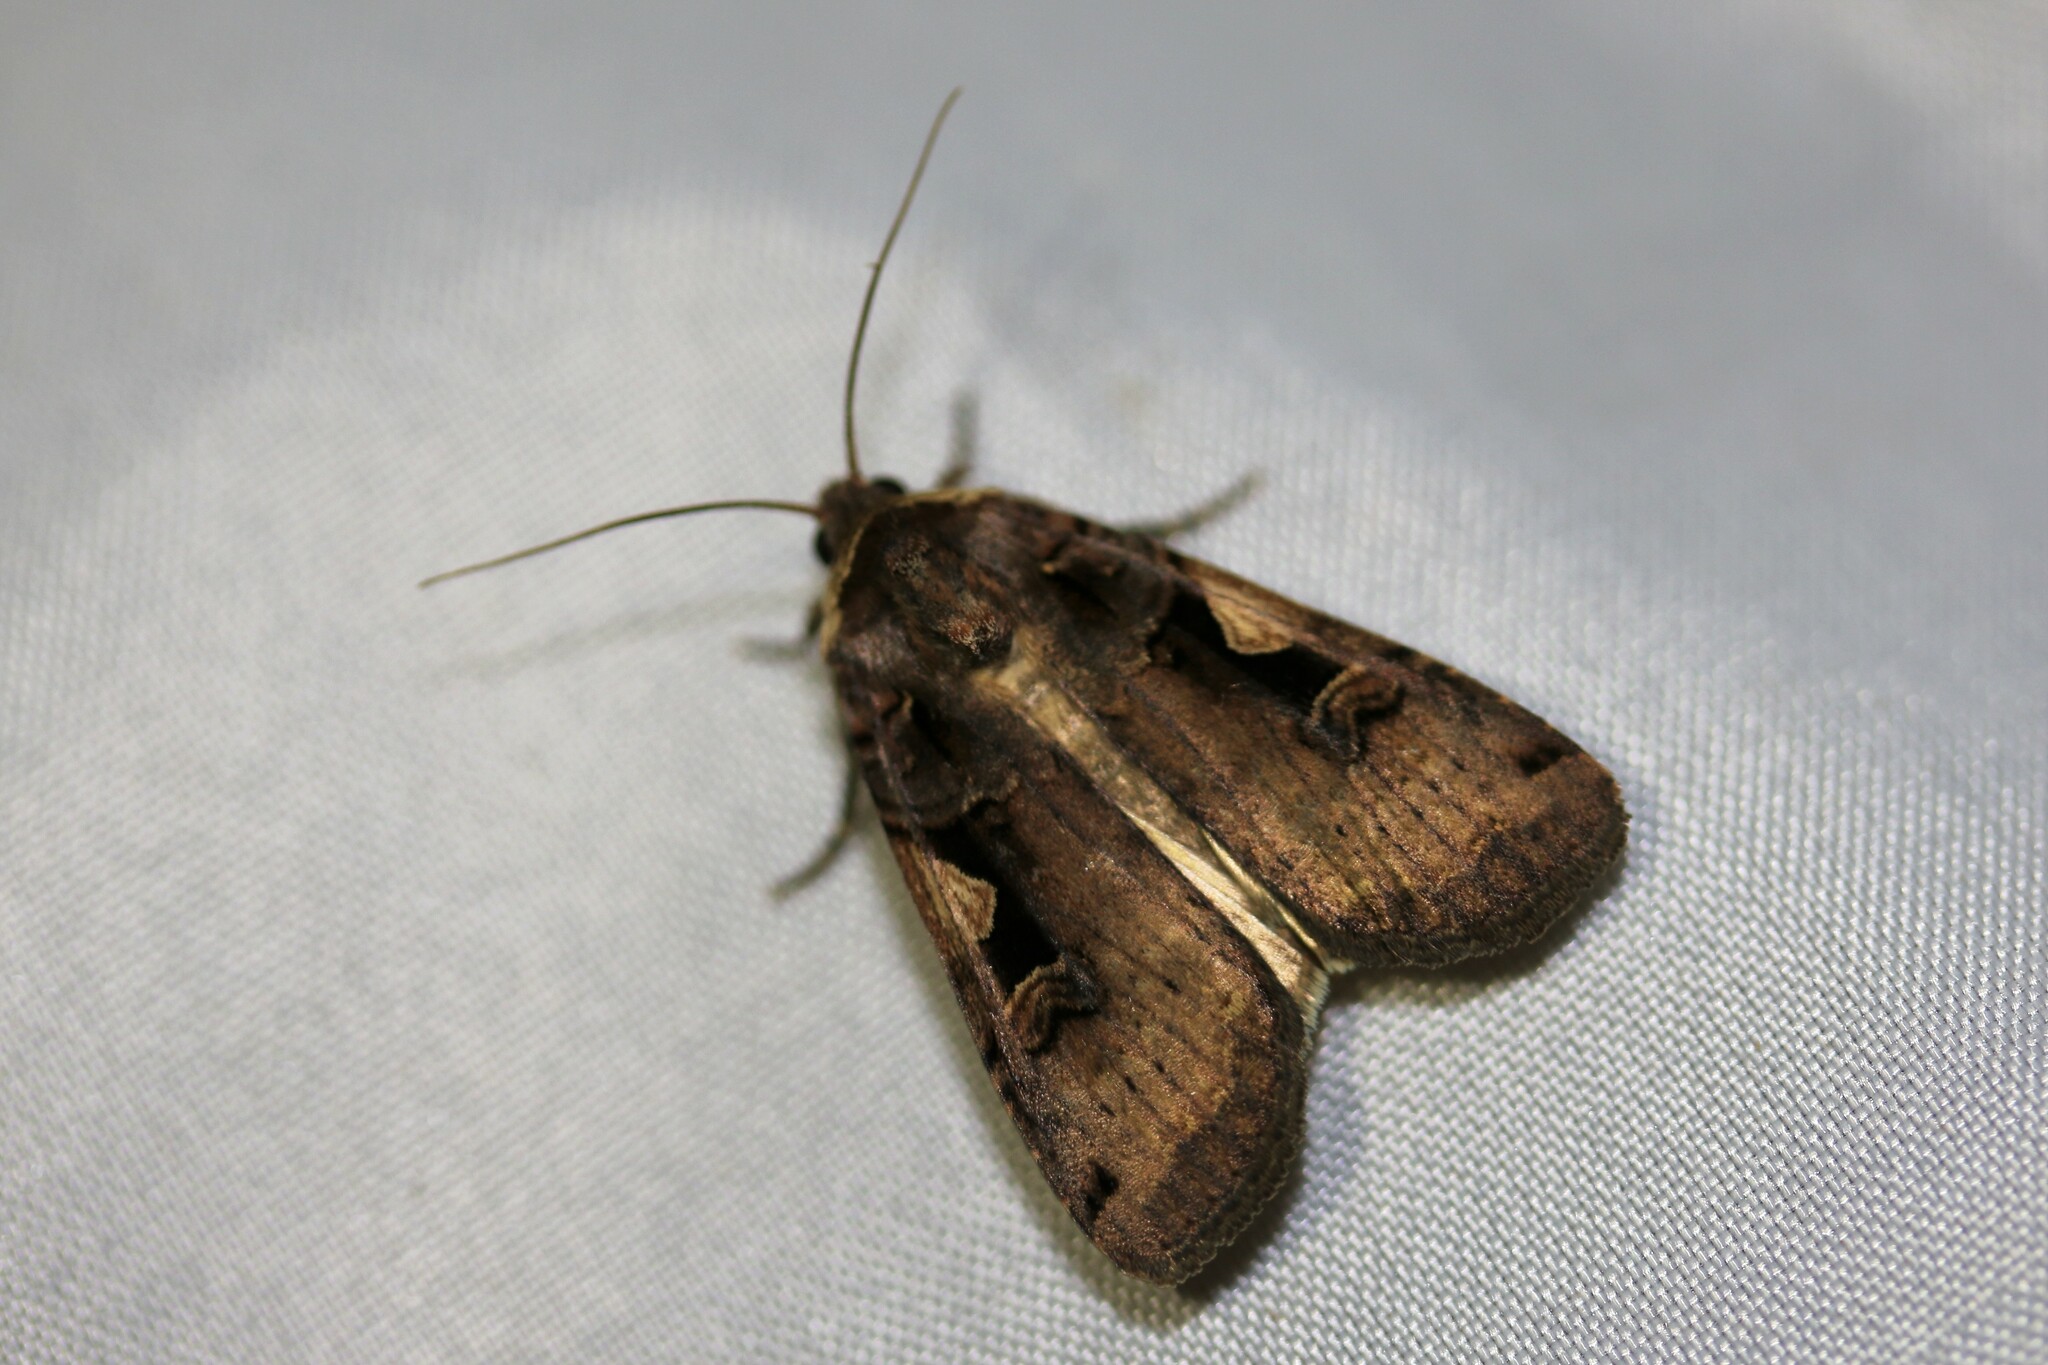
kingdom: Animalia
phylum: Arthropoda
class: Insecta
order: Lepidoptera
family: Noctuidae
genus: Xestia
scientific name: Xestia c-nigrum
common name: Setaceous hebrew character
